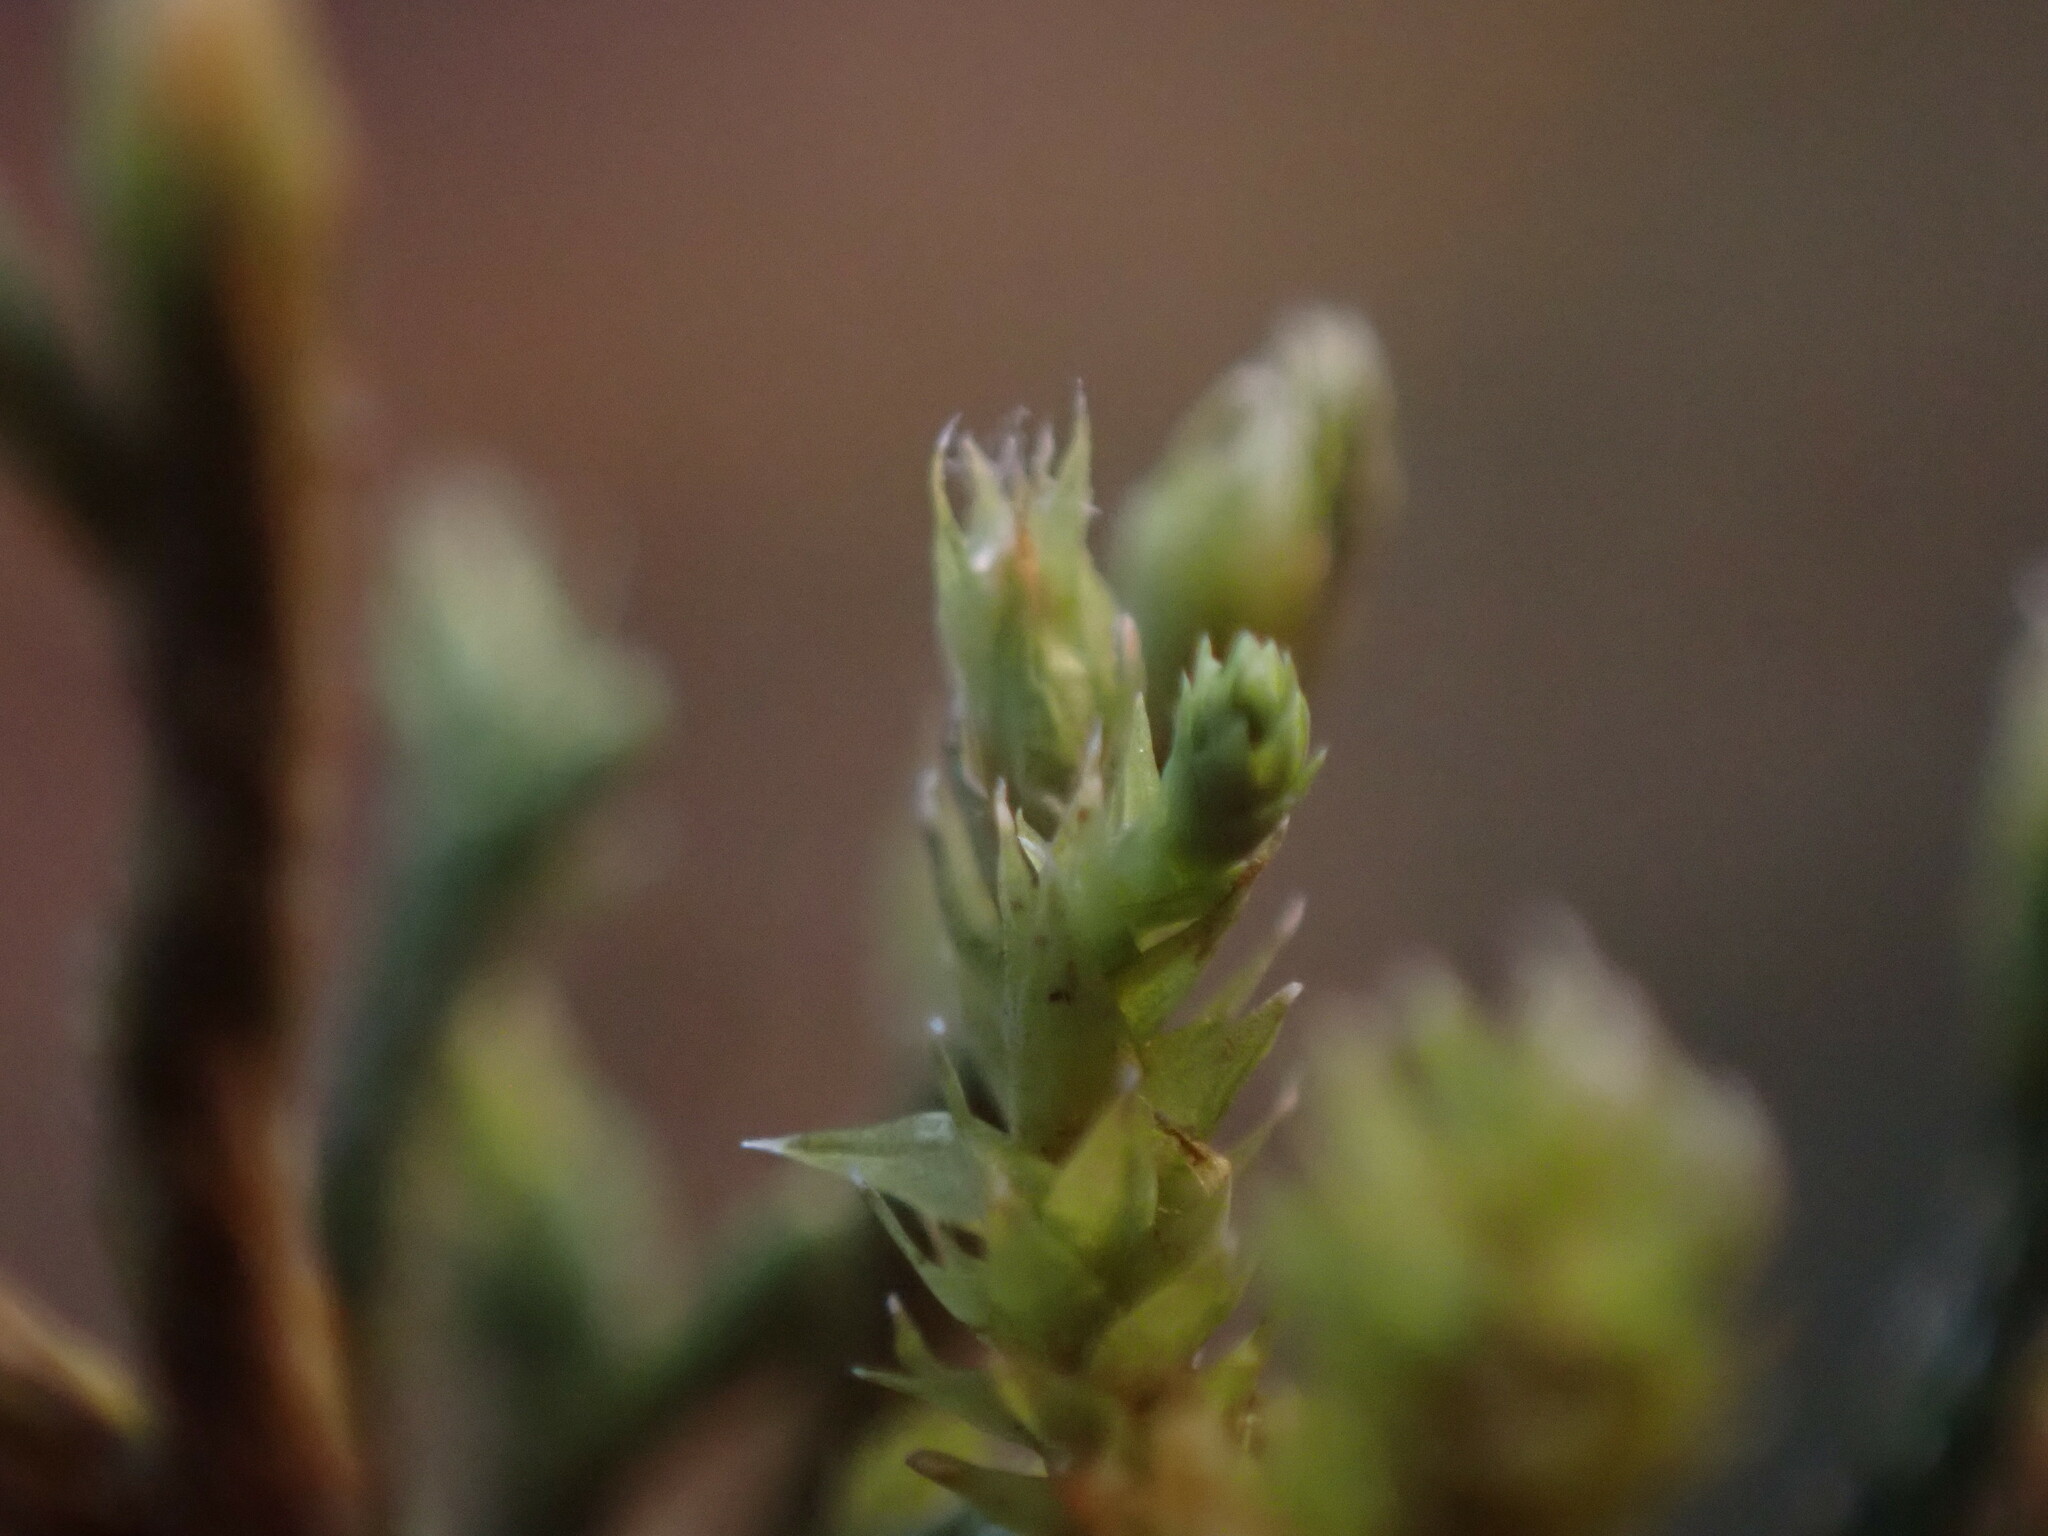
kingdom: Plantae
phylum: Bryophyta
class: Bryopsida
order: Hedwigiales
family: Hedwigiaceae
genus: Hedwigia
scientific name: Hedwigia ciliata
